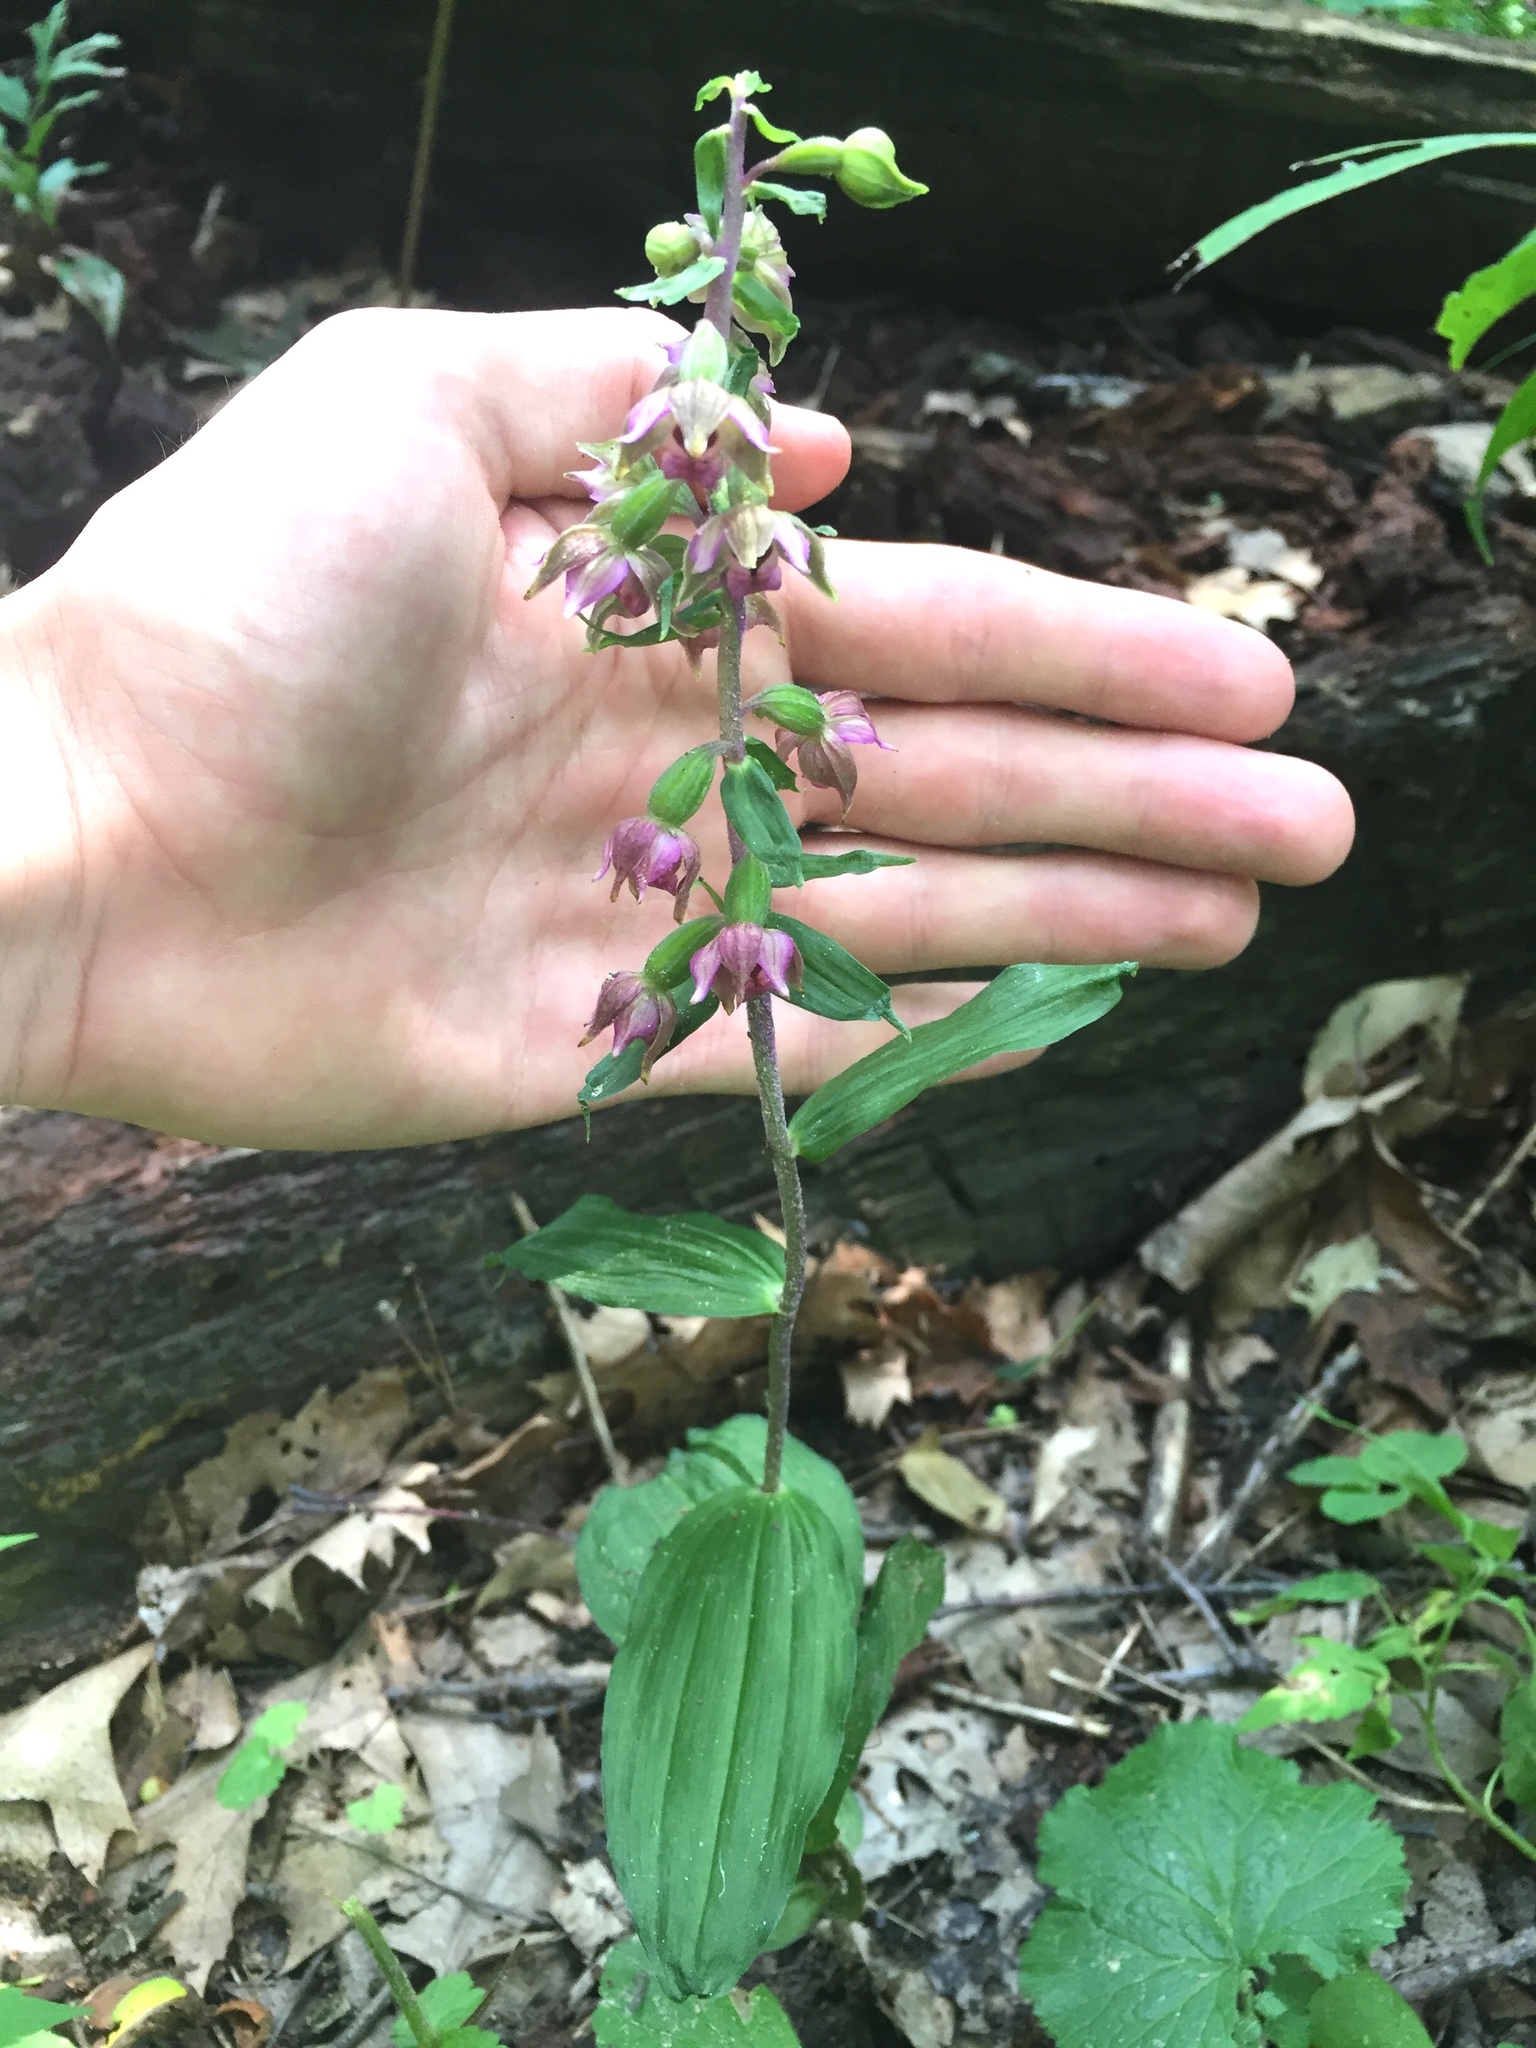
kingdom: Plantae
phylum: Tracheophyta
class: Liliopsida
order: Asparagales
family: Orchidaceae
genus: Epipactis
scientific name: Epipactis helleborine
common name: Broad-leaved helleborine
